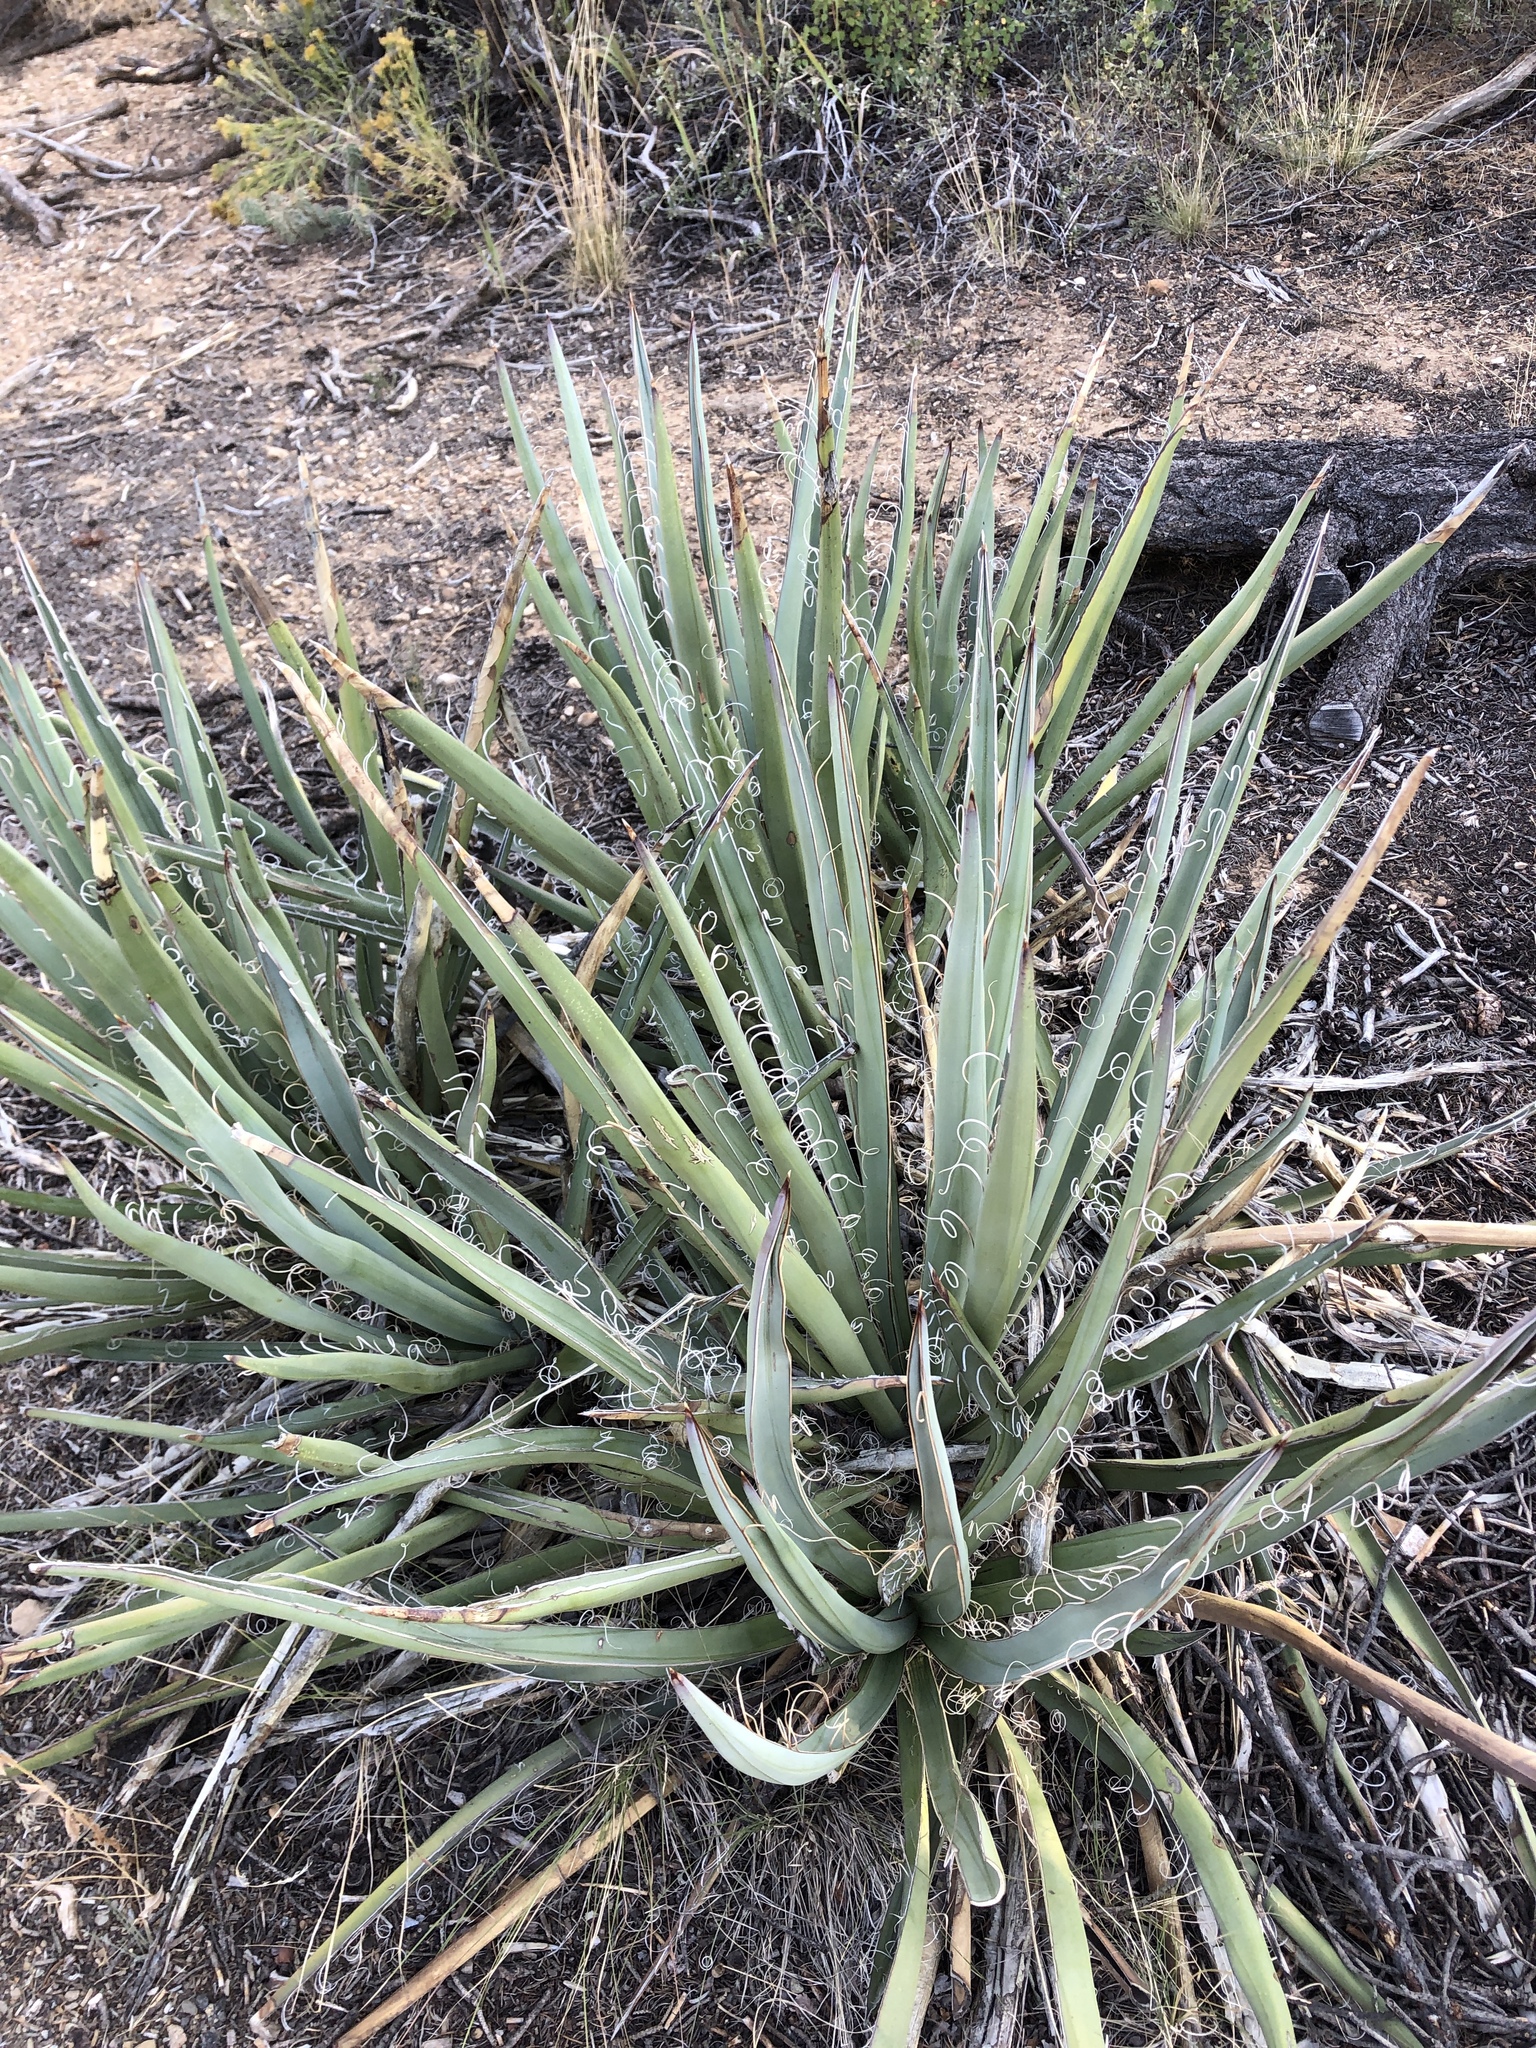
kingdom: Plantae
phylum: Tracheophyta
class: Liliopsida
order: Asparagales
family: Asparagaceae
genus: Yucca
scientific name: Yucca baccata
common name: Banana yucca
